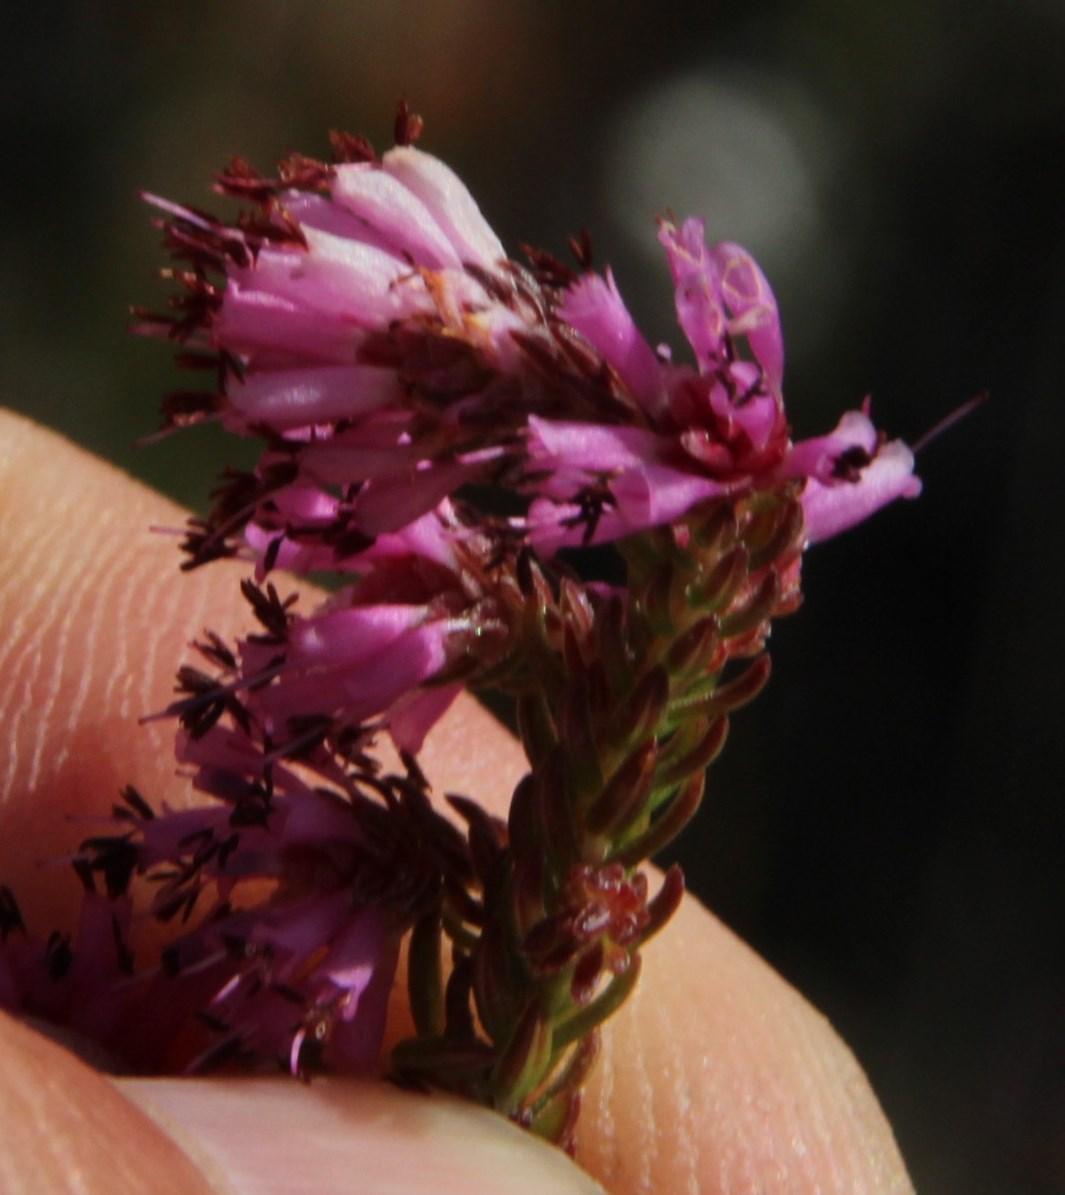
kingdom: Plantae
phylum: Tracheophyta
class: Magnoliopsida
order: Ericales
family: Ericaceae
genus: Erica
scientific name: Erica labialis
